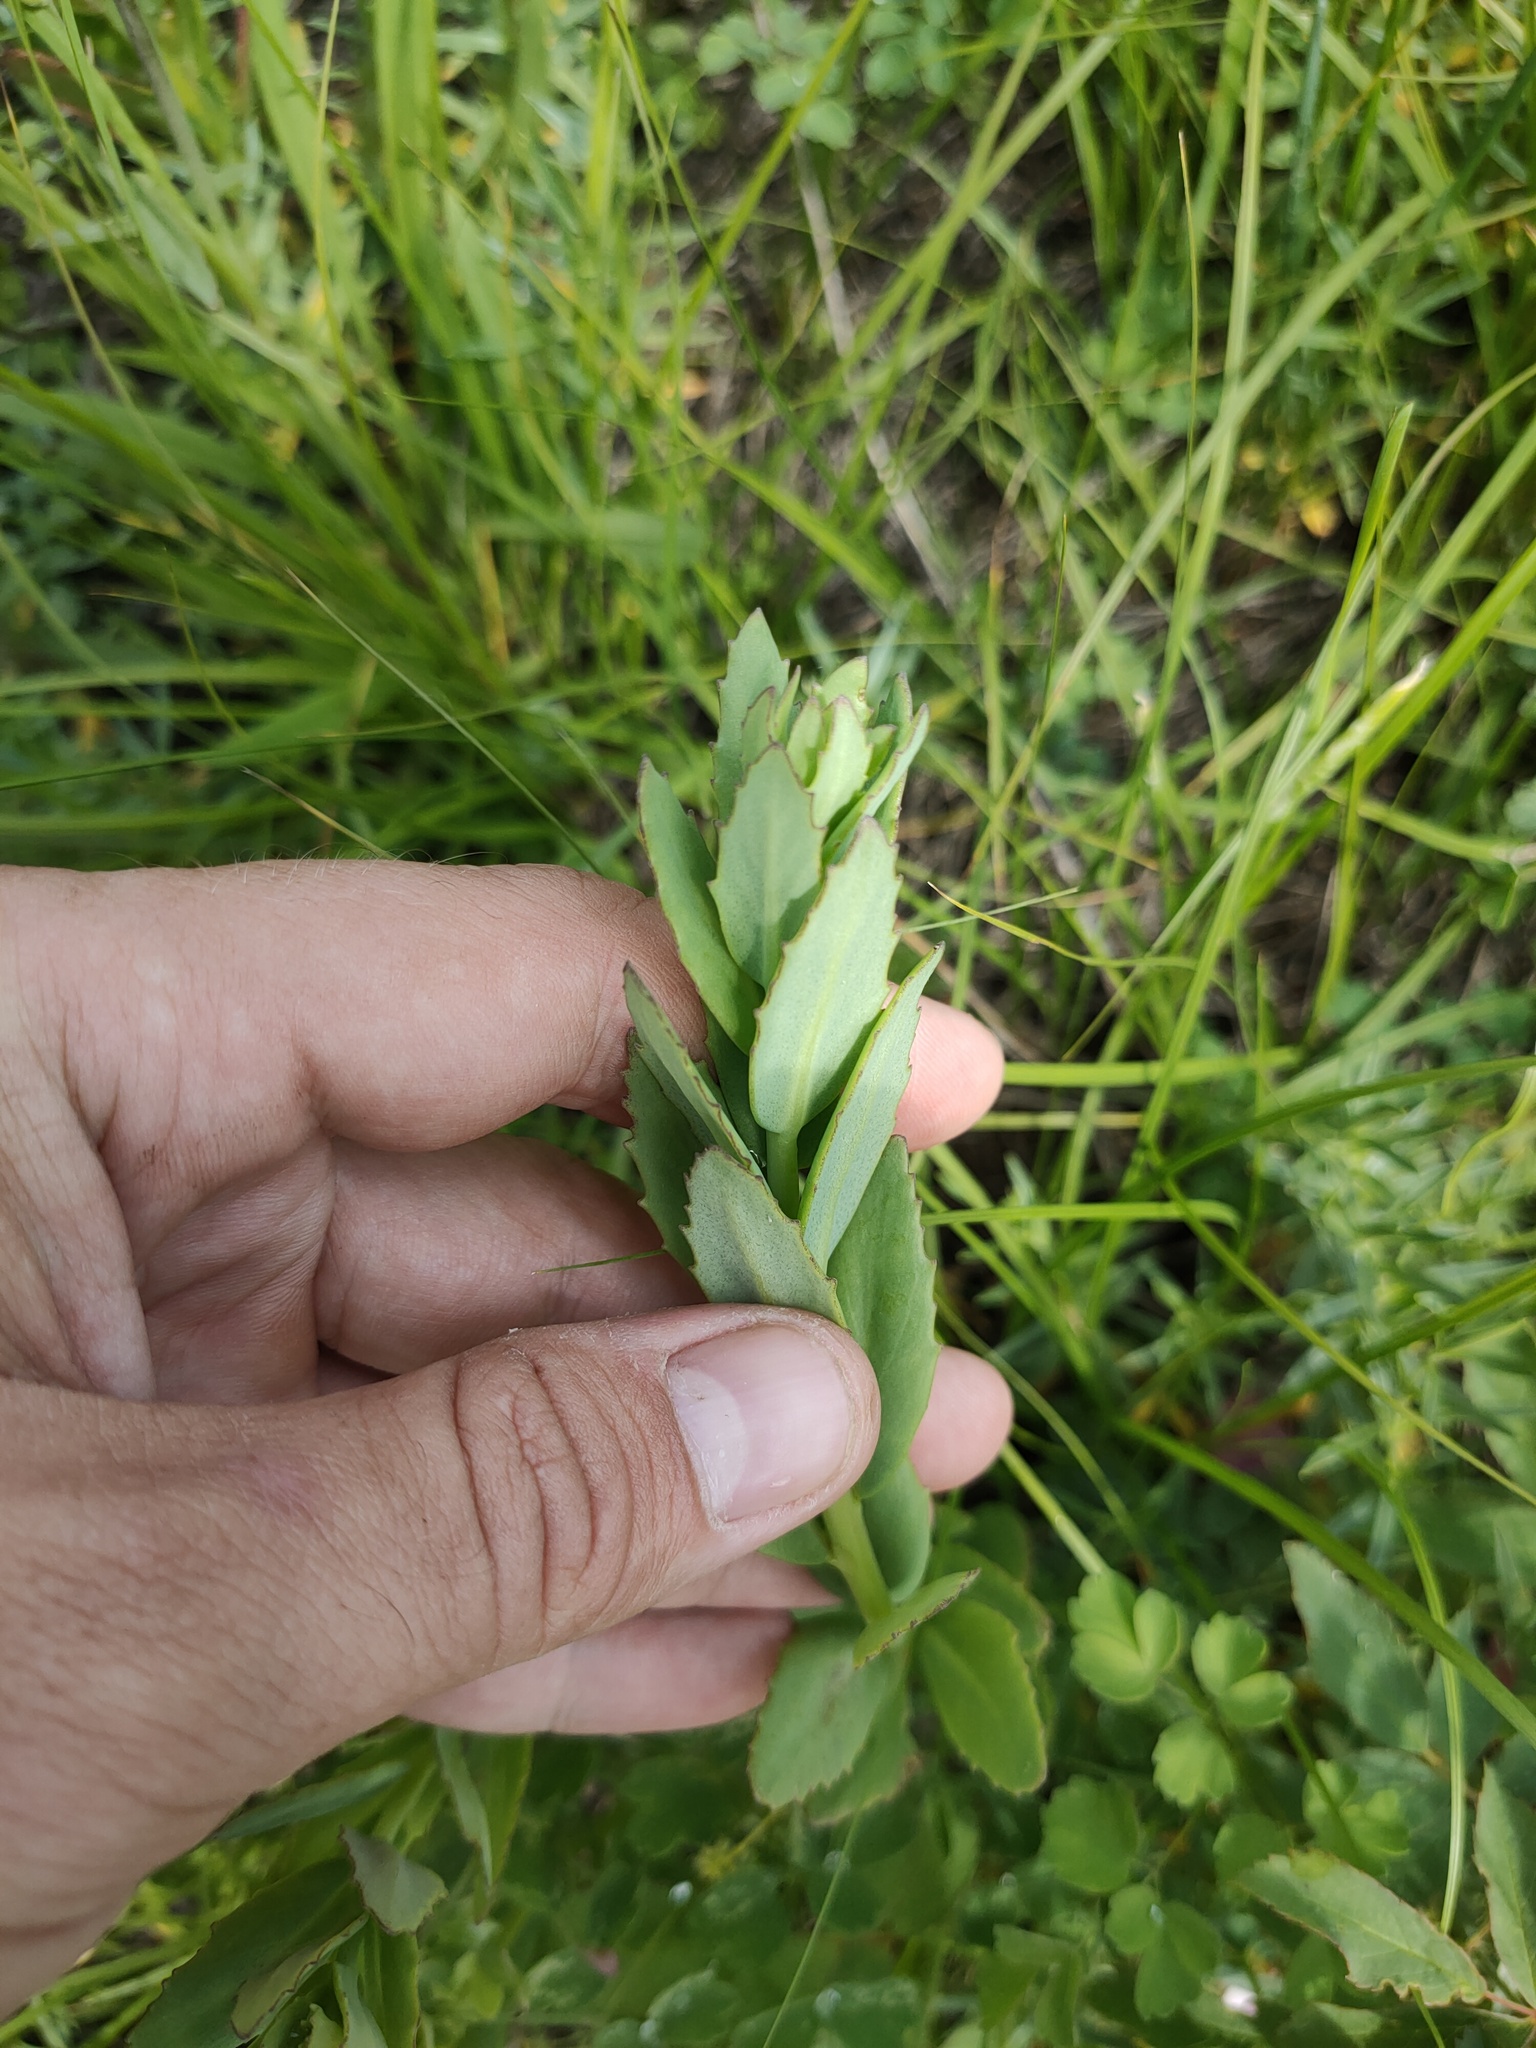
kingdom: Plantae
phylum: Tracheophyta
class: Magnoliopsida
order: Saxifragales
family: Crassulaceae
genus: Hylotelephium
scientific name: Hylotelephium telephium
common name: Live-forever
